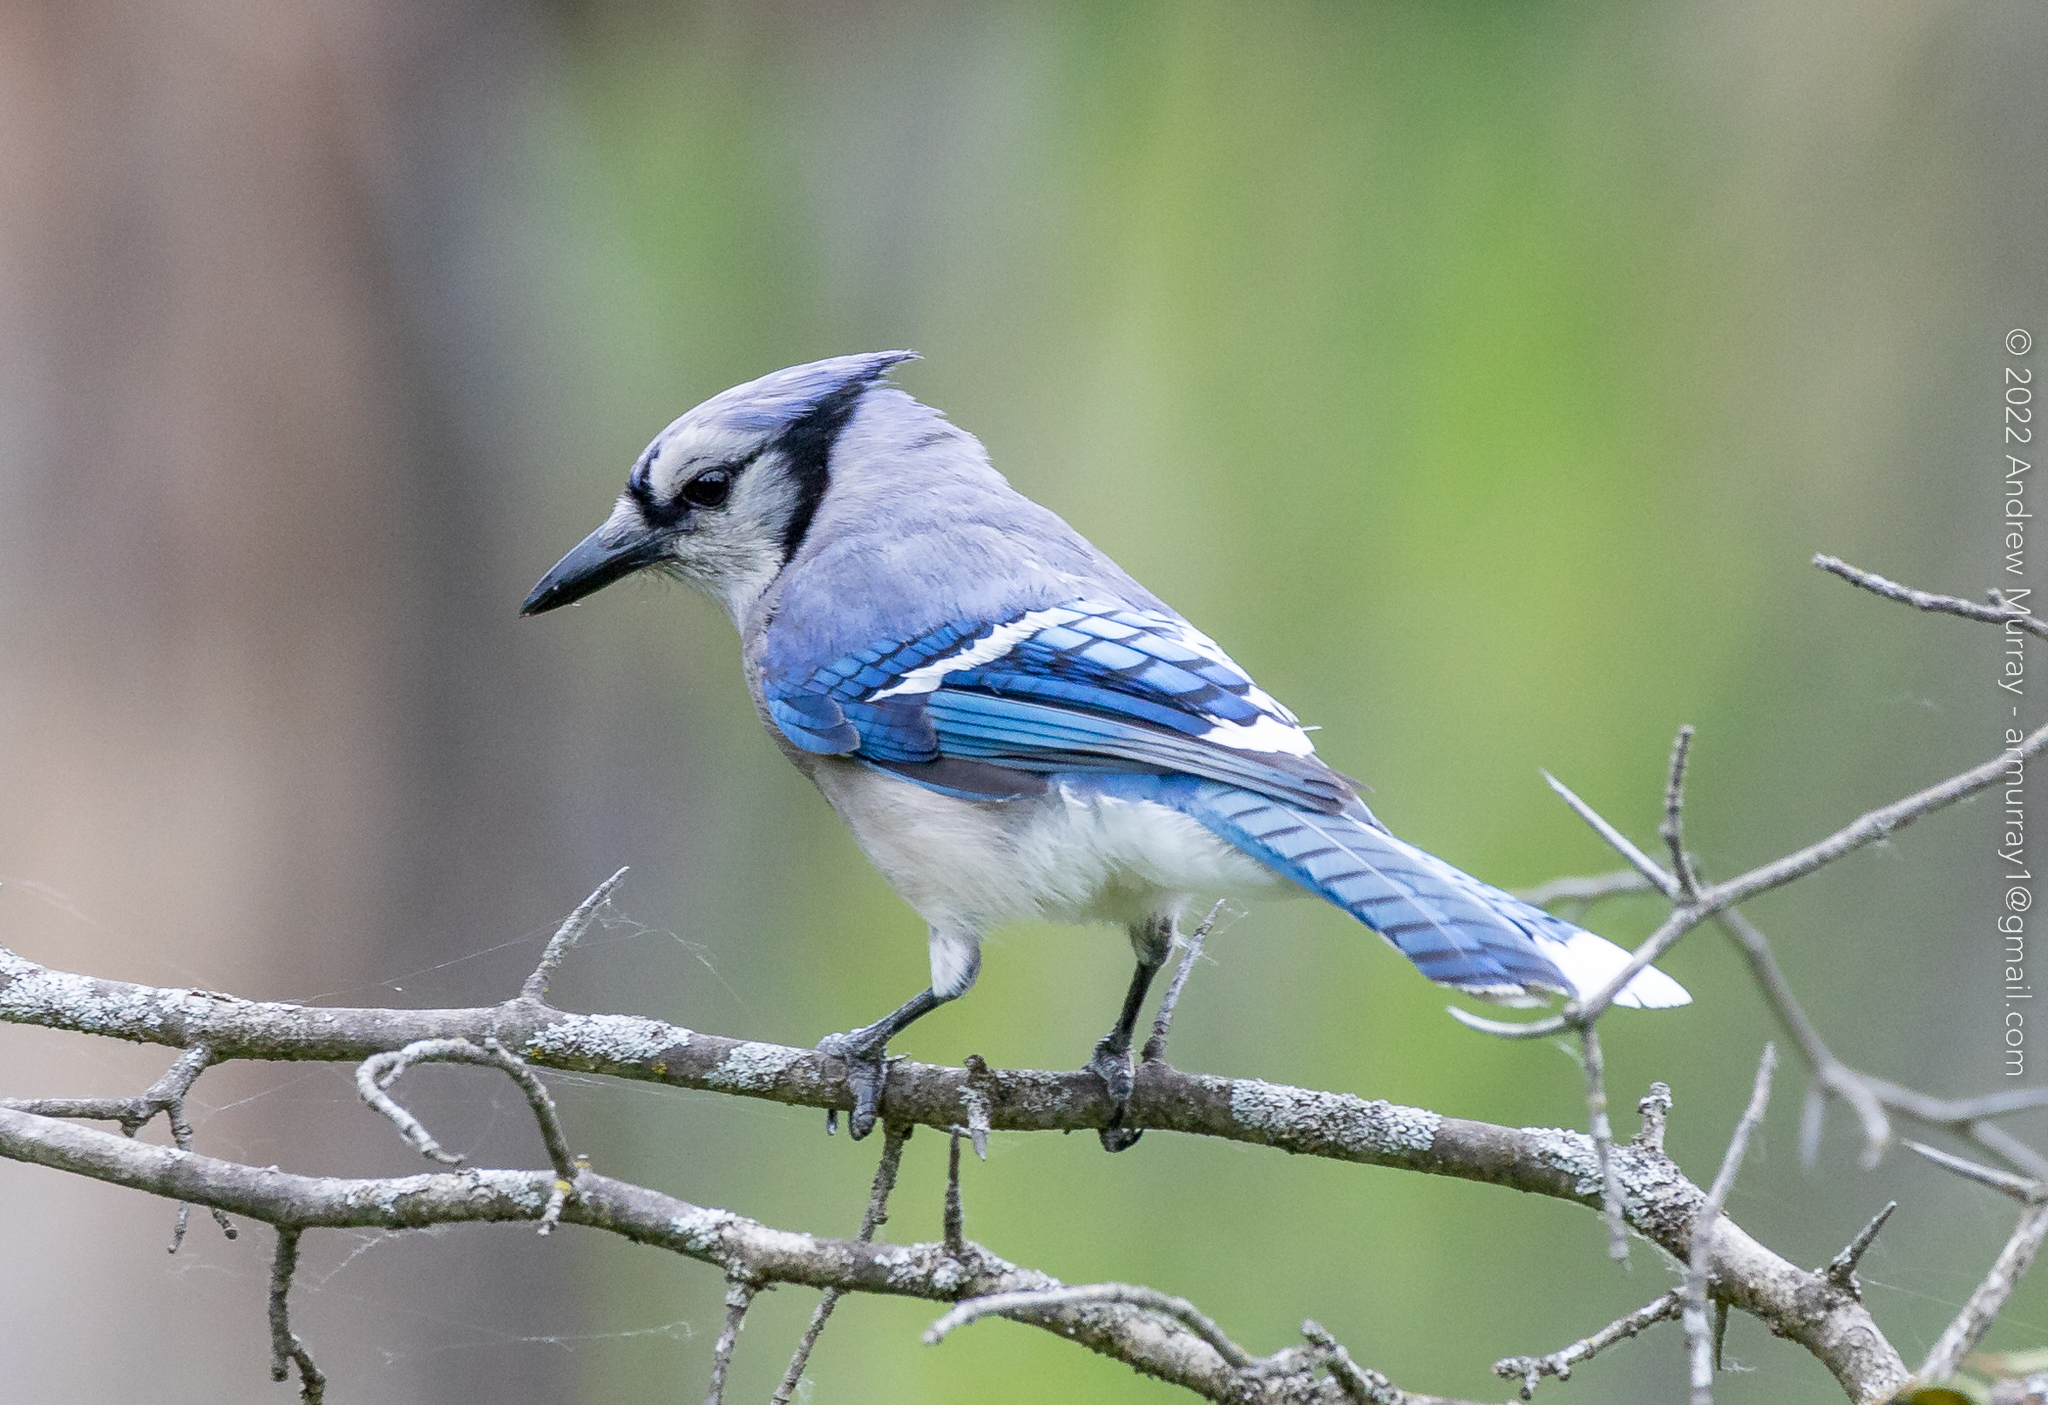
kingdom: Animalia
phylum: Chordata
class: Aves
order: Passeriformes
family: Corvidae
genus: Cyanocitta
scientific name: Cyanocitta cristata
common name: Blue jay
